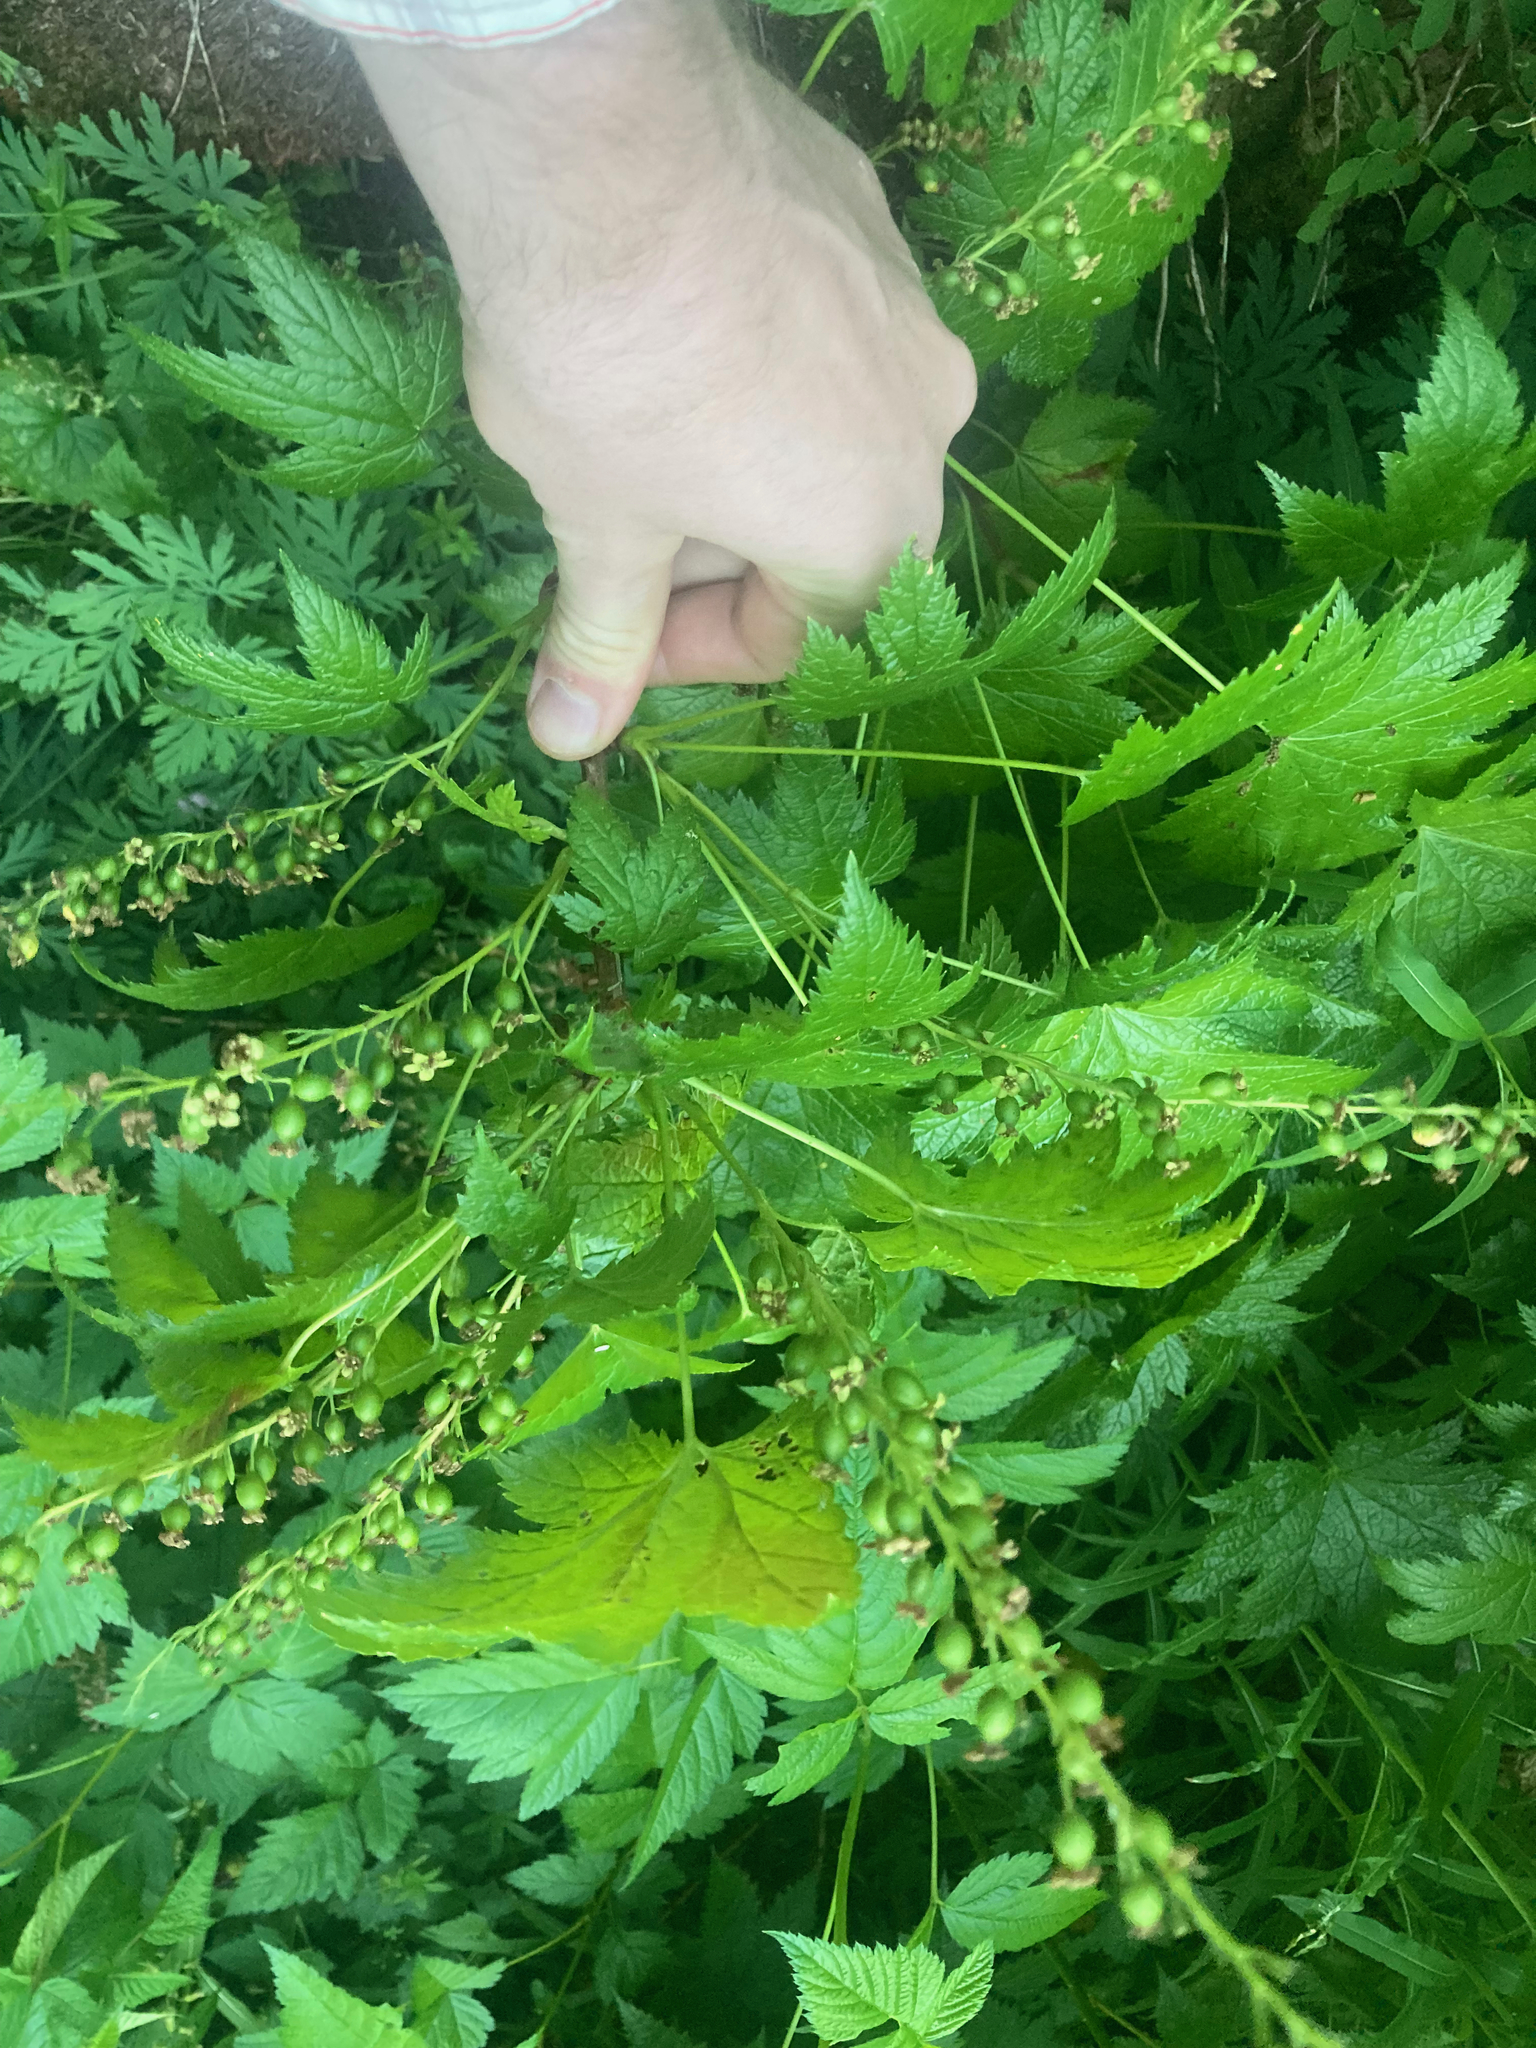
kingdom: Plantae
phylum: Tracheophyta
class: Magnoliopsida
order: Saxifragales
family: Grossulariaceae
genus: Ribes
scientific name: Ribes bracteosum
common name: California black currant
